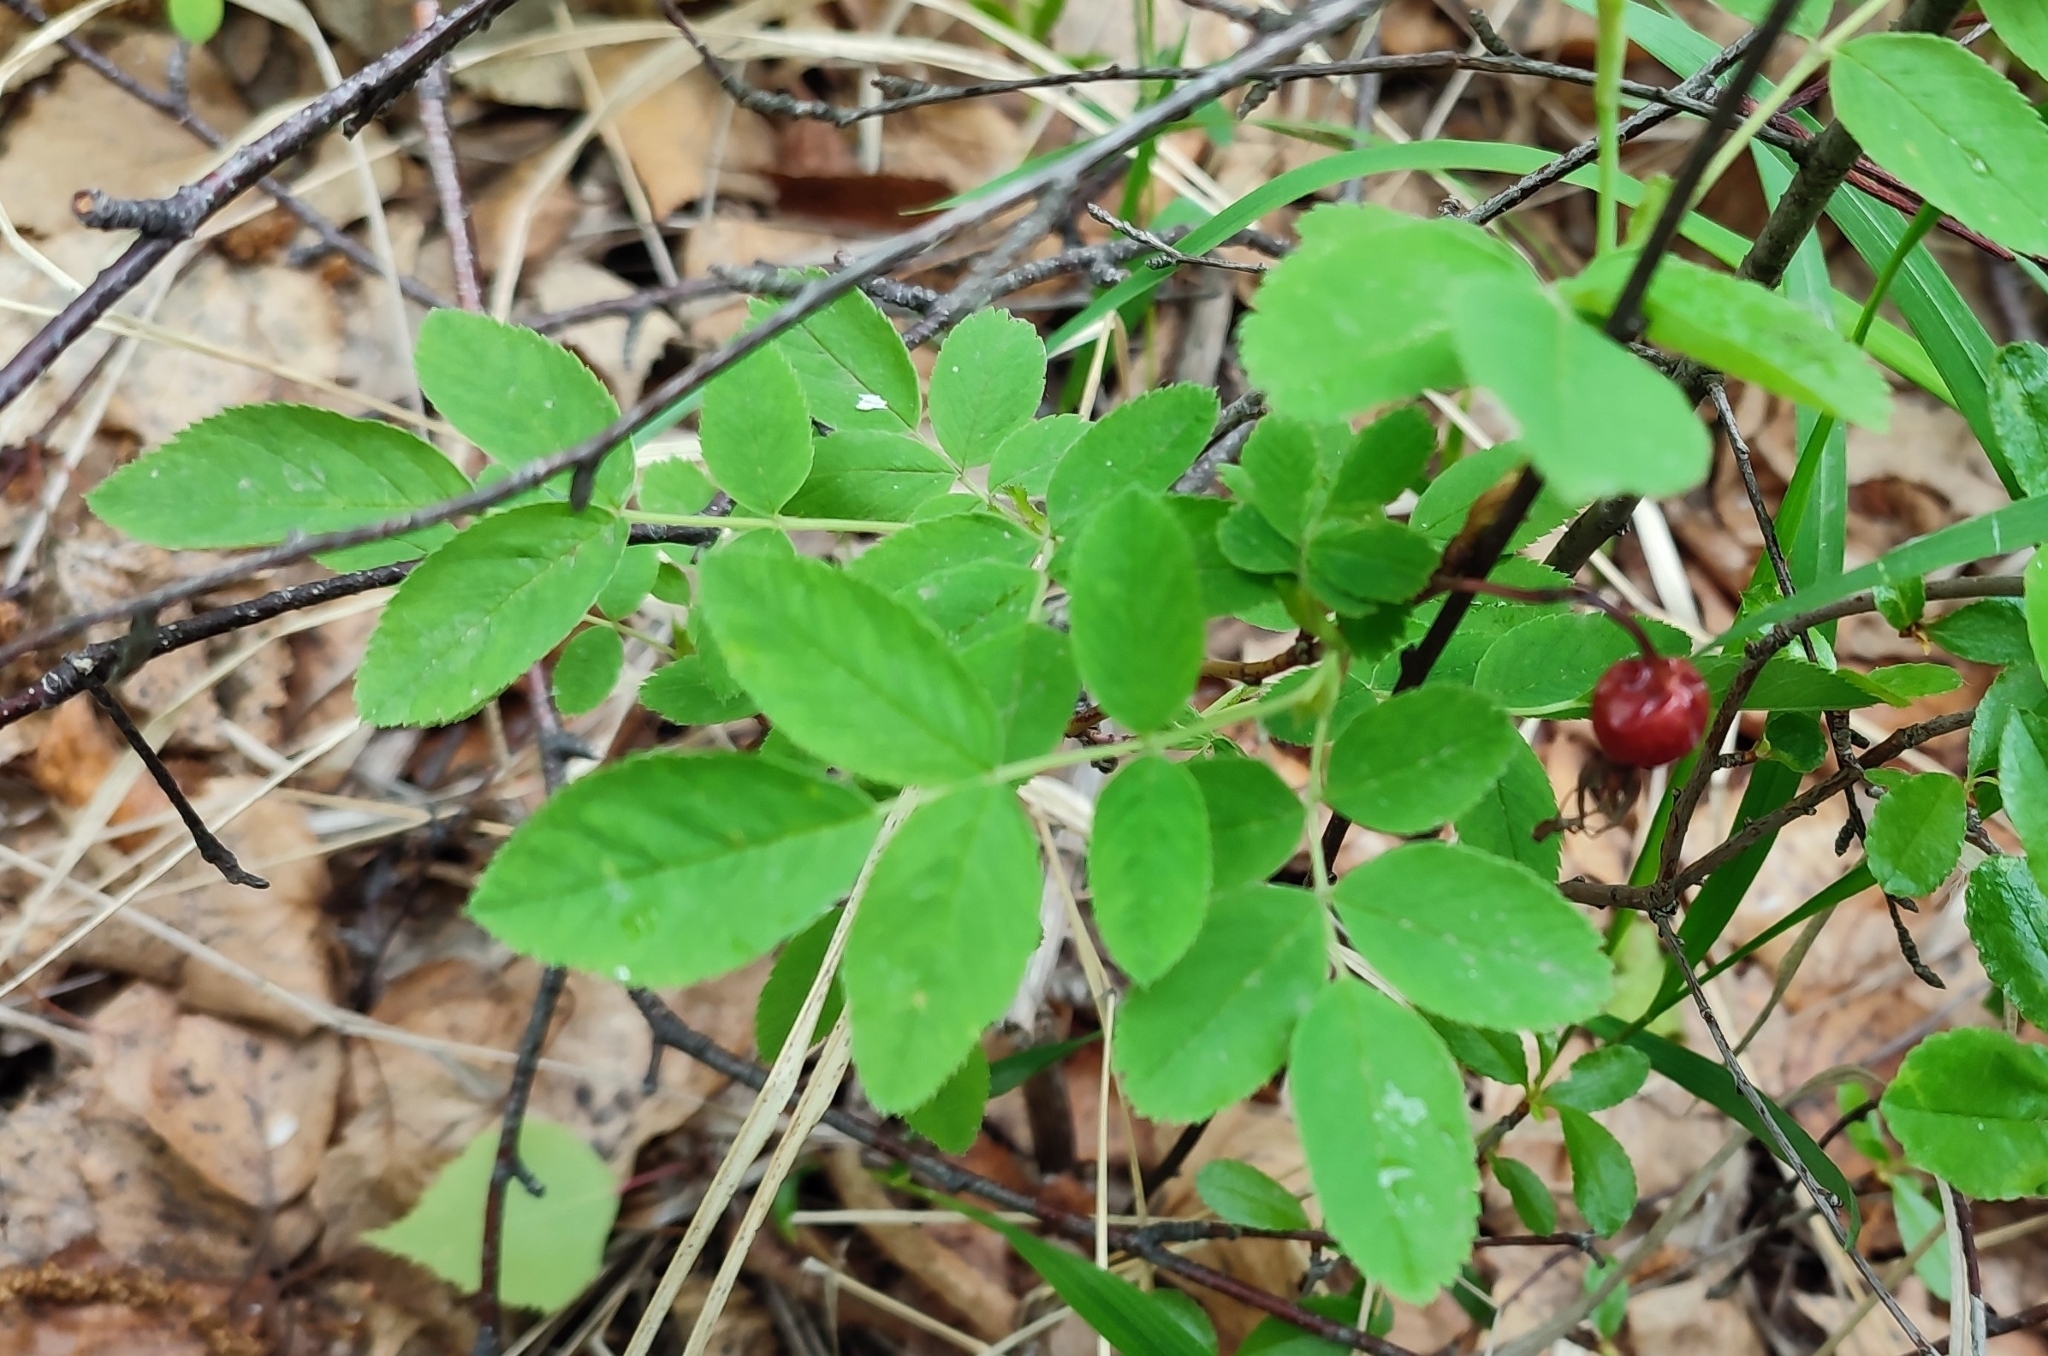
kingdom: Plantae
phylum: Tracheophyta
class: Magnoliopsida
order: Rosales
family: Rosaceae
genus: Rosa
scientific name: Rosa majalis
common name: Cinnamon rose
